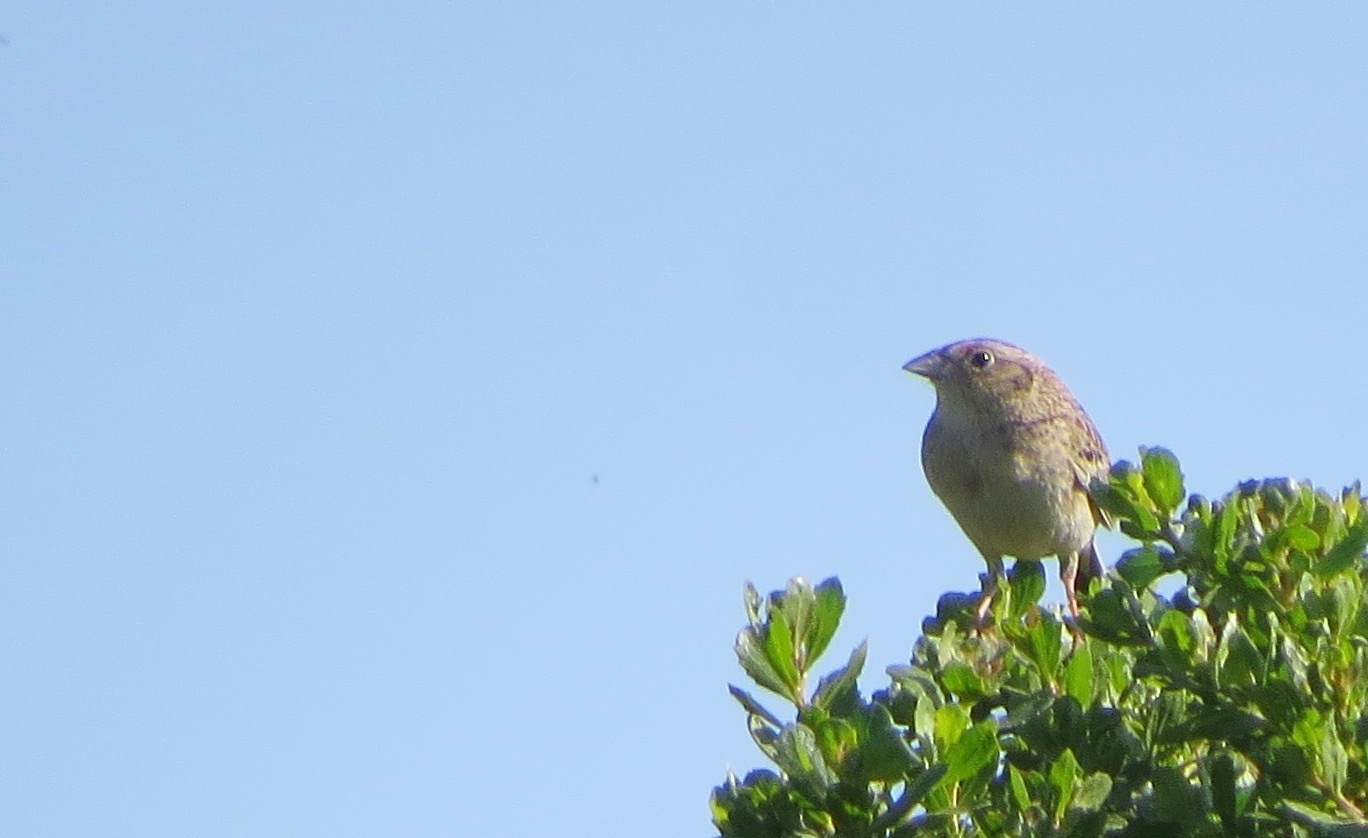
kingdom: Animalia
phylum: Chordata
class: Aves
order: Passeriformes
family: Passerellidae
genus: Ammodramus
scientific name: Ammodramus savannarum
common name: Grasshopper sparrow
